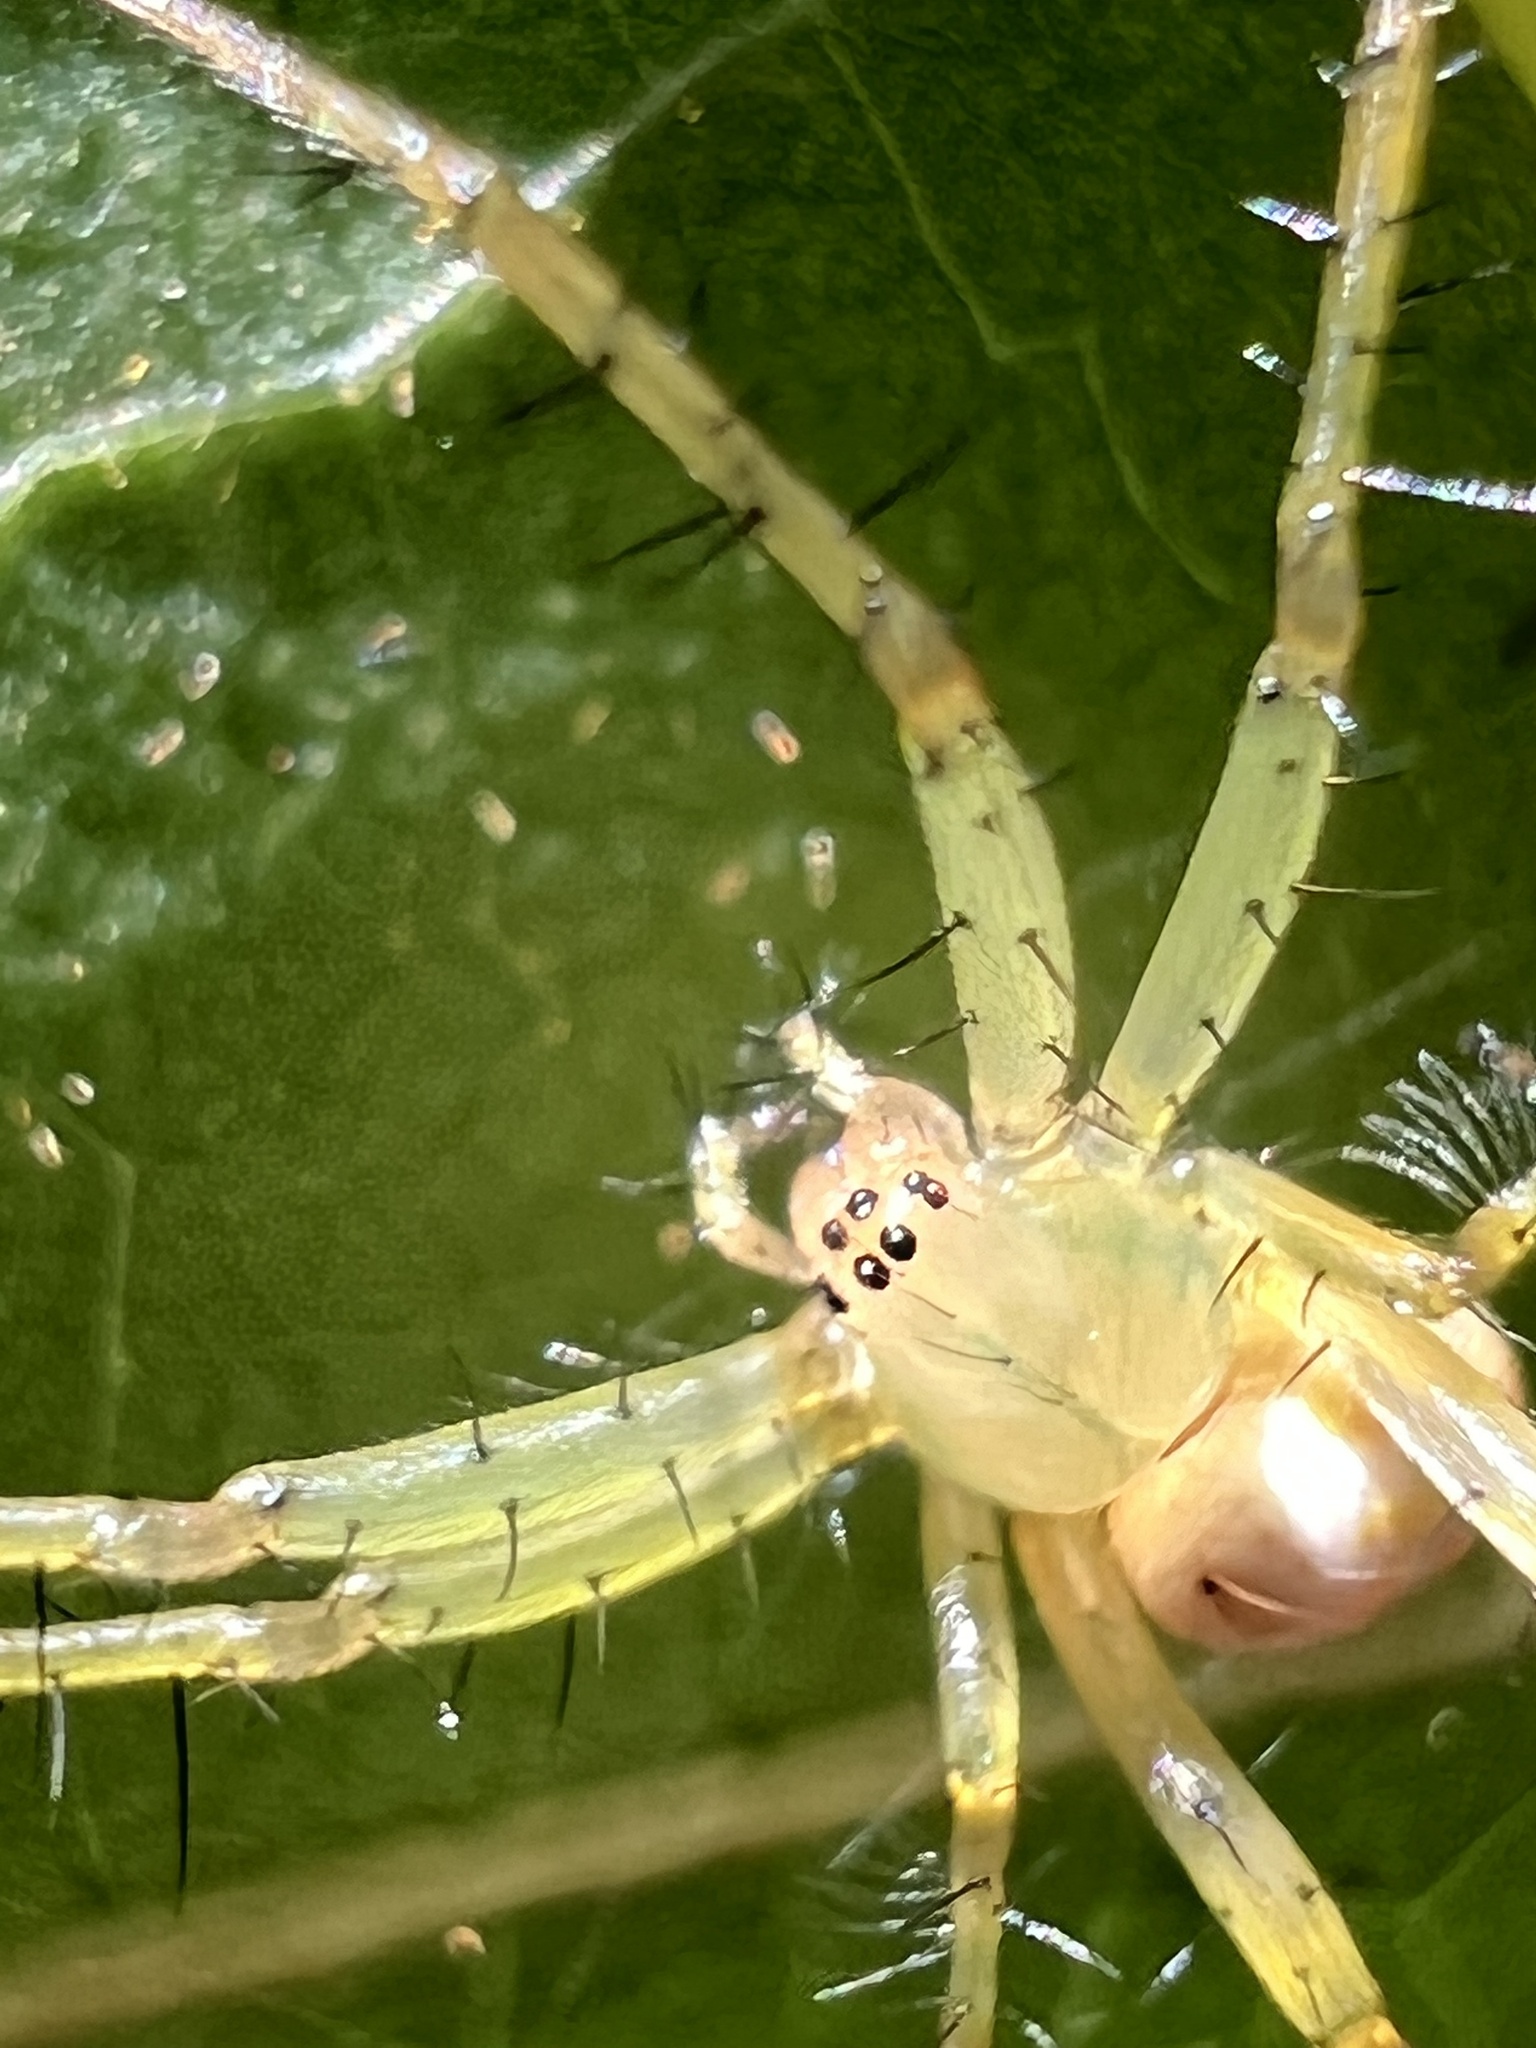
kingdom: Animalia
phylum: Arthropoda
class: Arachnida
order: Araneae
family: Araneidae
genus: Mangora
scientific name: Mangora maculata
